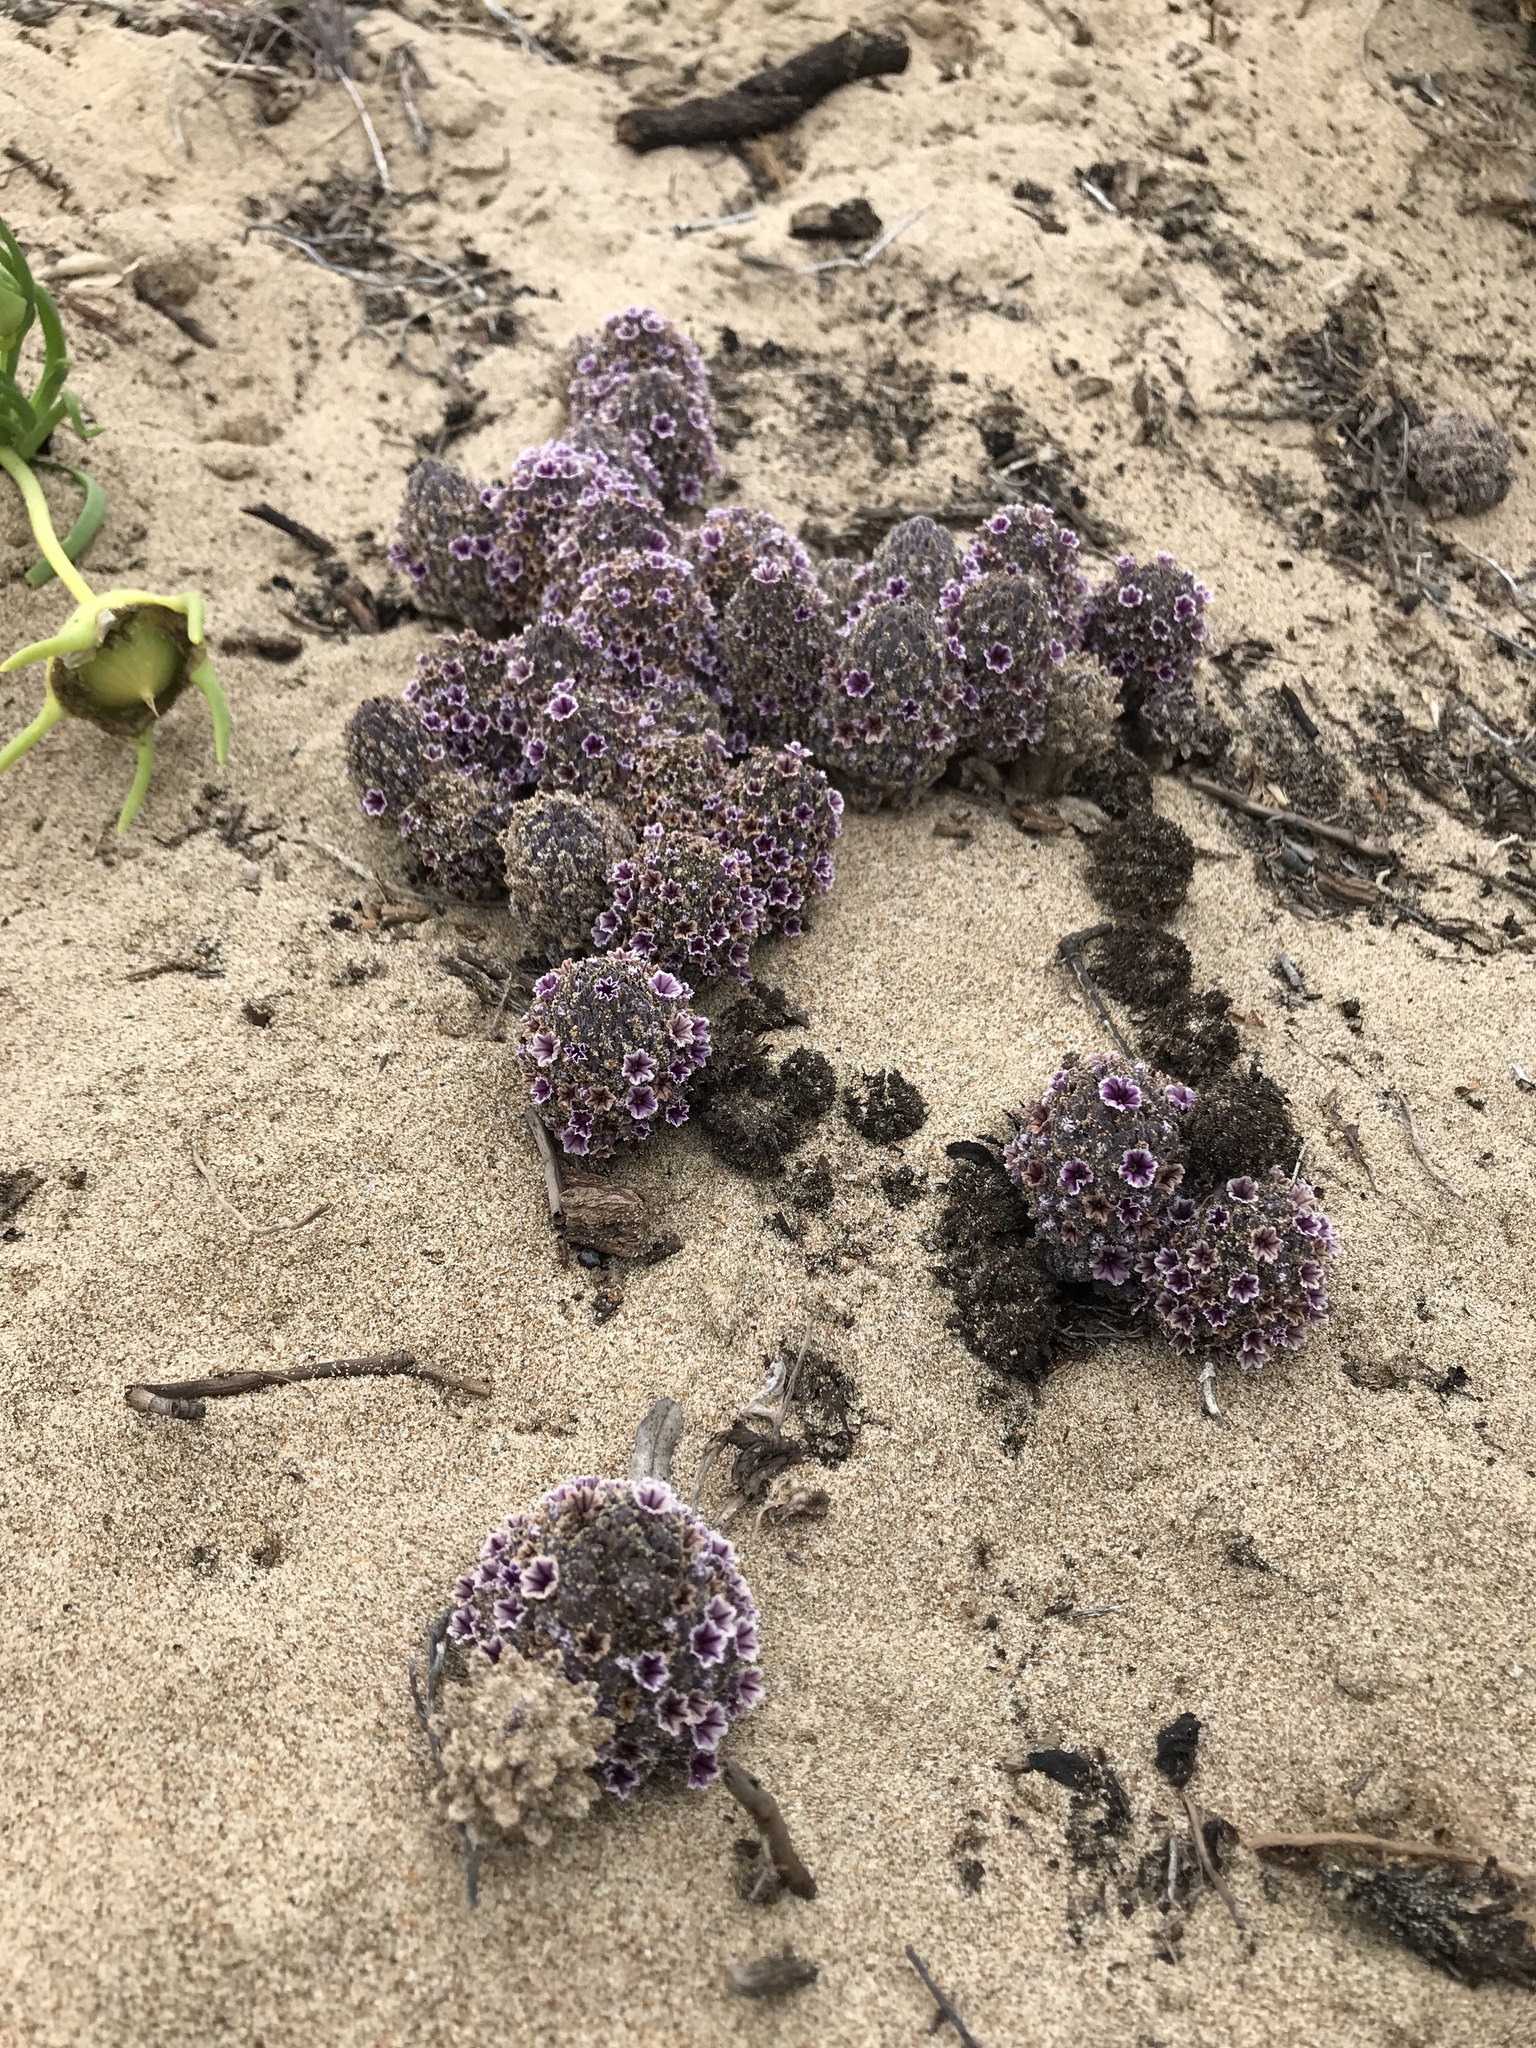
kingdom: Plantae
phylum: Tracheophyta
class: Magnoliopsida
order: Boraginales
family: Lennoaceae
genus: Pholisma
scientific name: Pholisma arenarium
